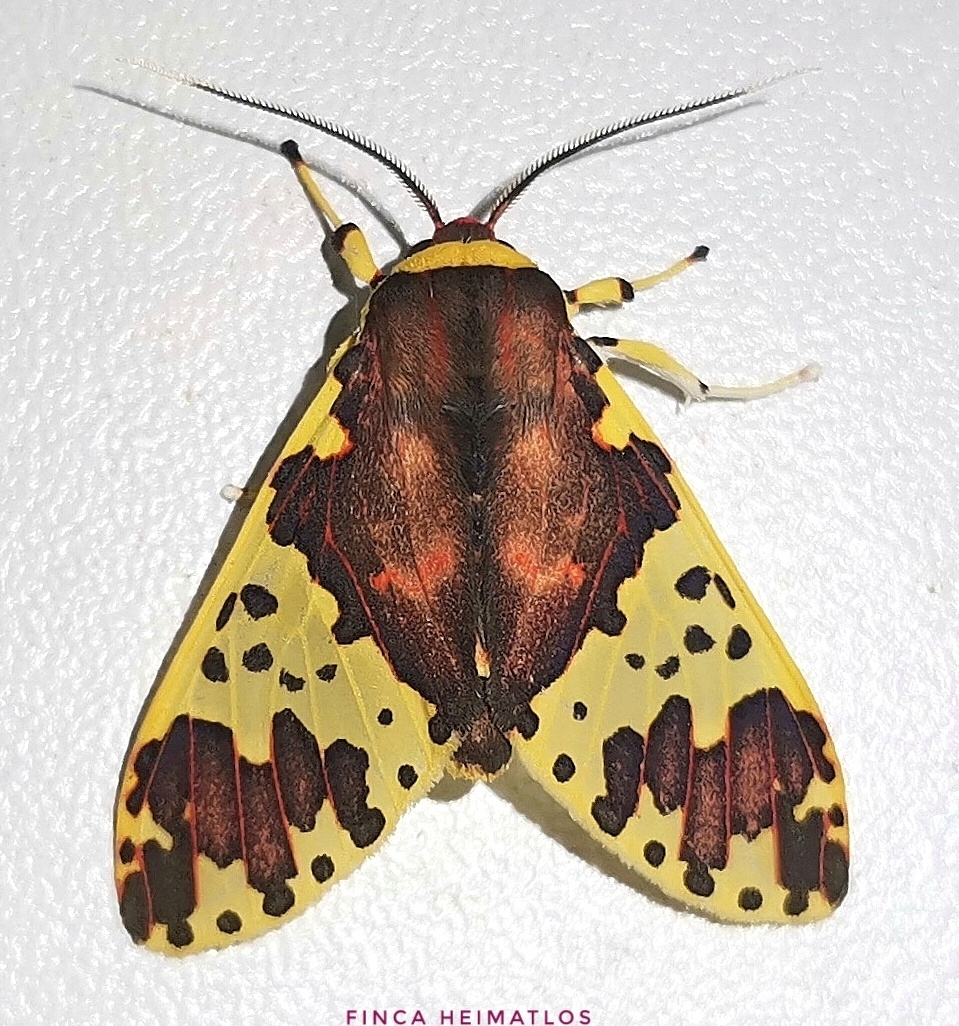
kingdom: Animalia
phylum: Arthropoda
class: Insecta
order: Lepidoptera
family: Erebidae
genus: Amaxia
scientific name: Amaxia carinosa
